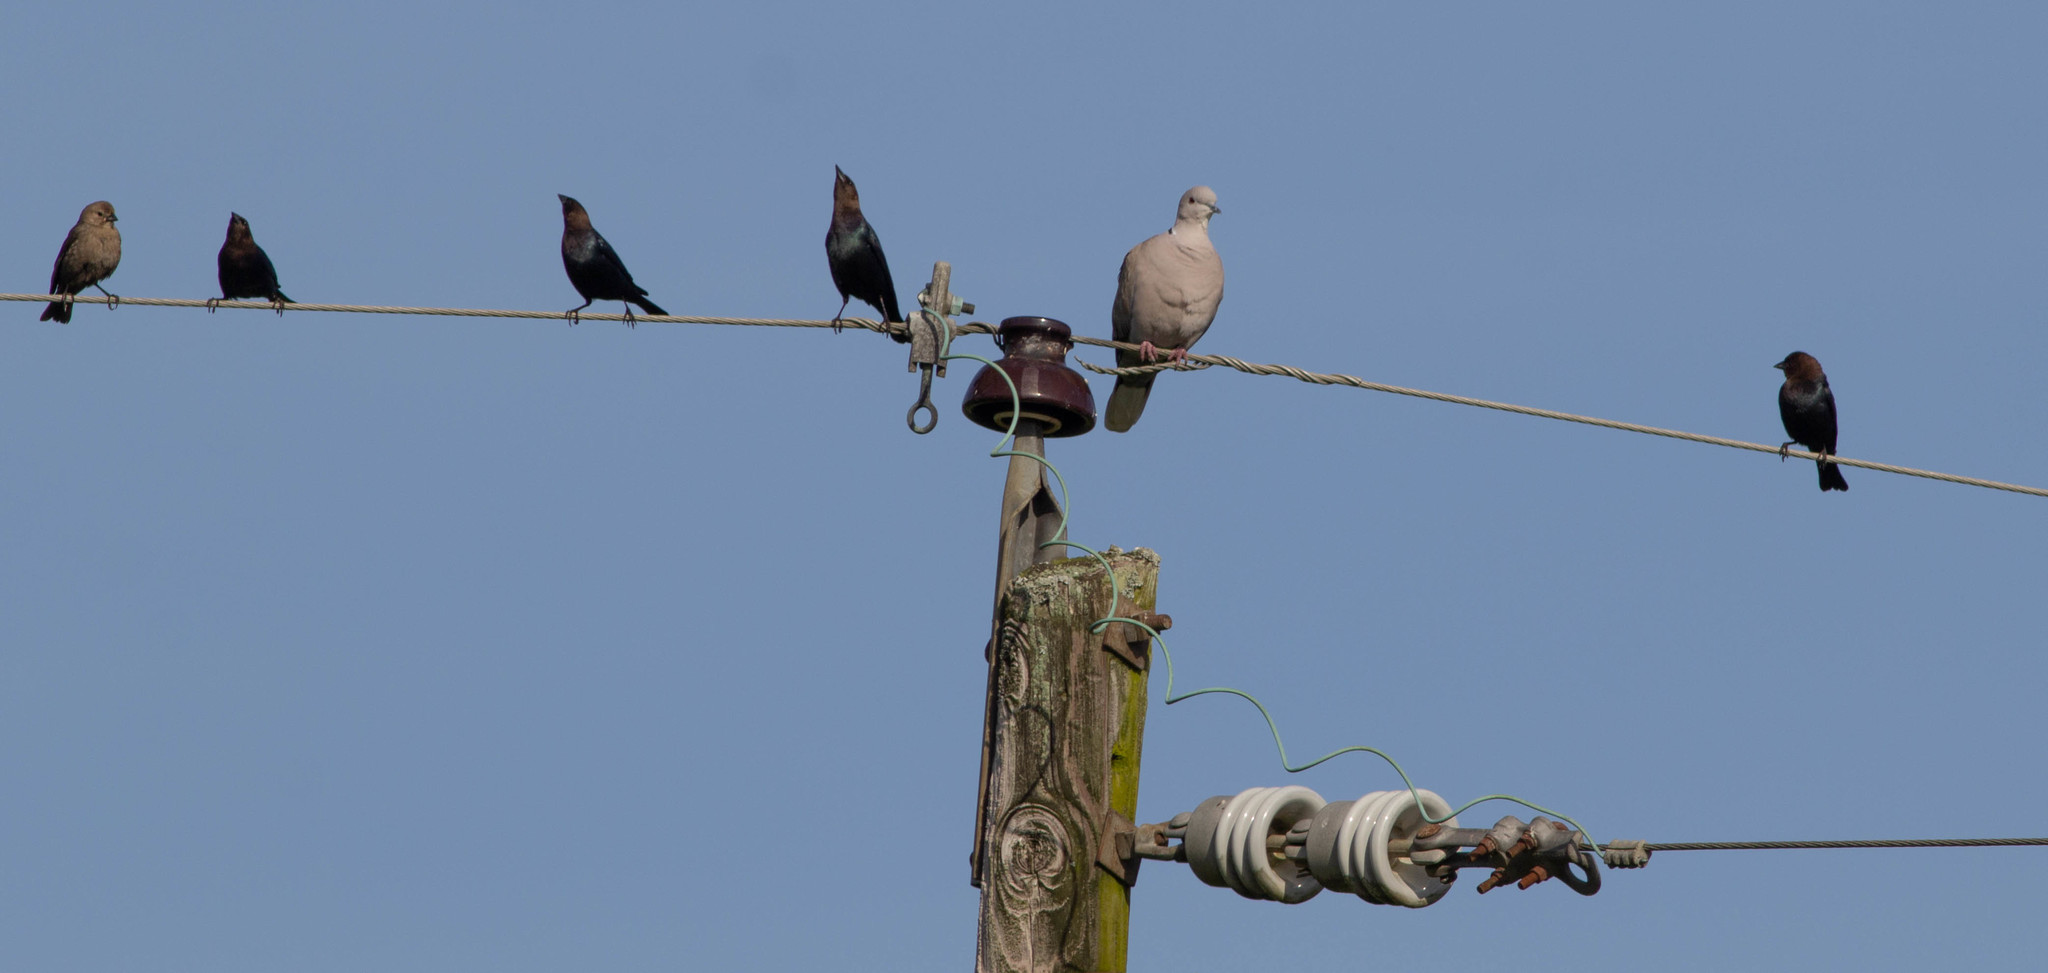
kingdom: Animalia
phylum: Chordata
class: Aves
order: Columbiformes
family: Columbidae
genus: Streptopelia
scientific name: Streptopelia decaocto
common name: Eurasian collared dove
